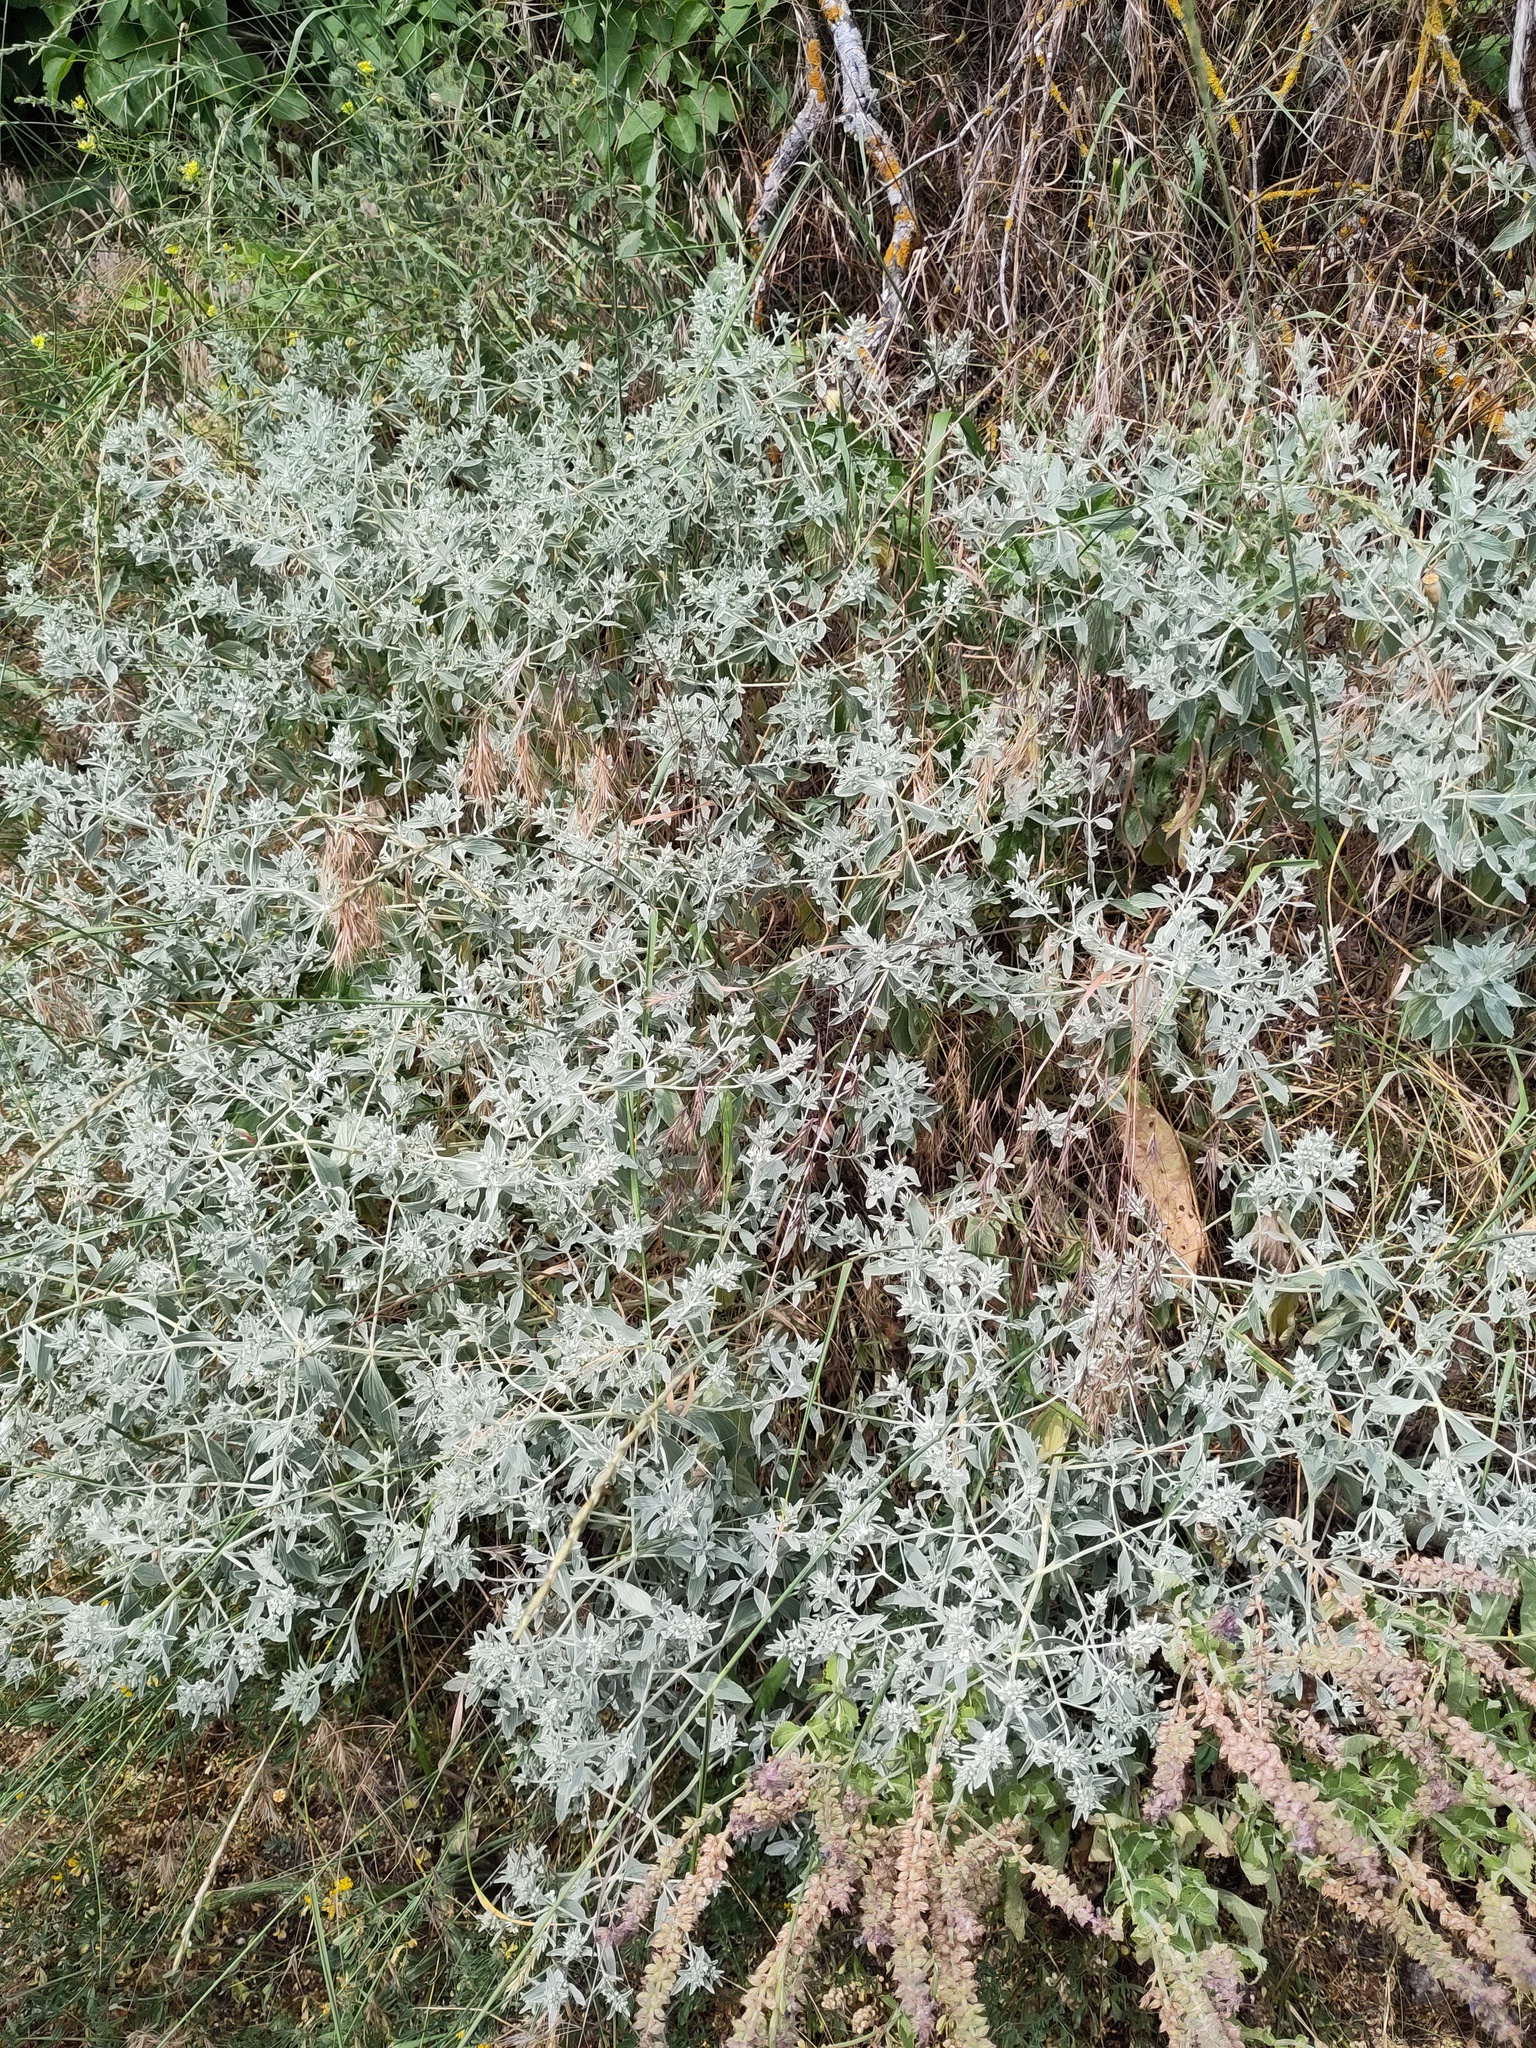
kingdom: Plantae
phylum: Tracheophyta
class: Magnoliopsida
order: Lamiales
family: Lamiaceae
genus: Marrubium
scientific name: Marrubium peregrinum
